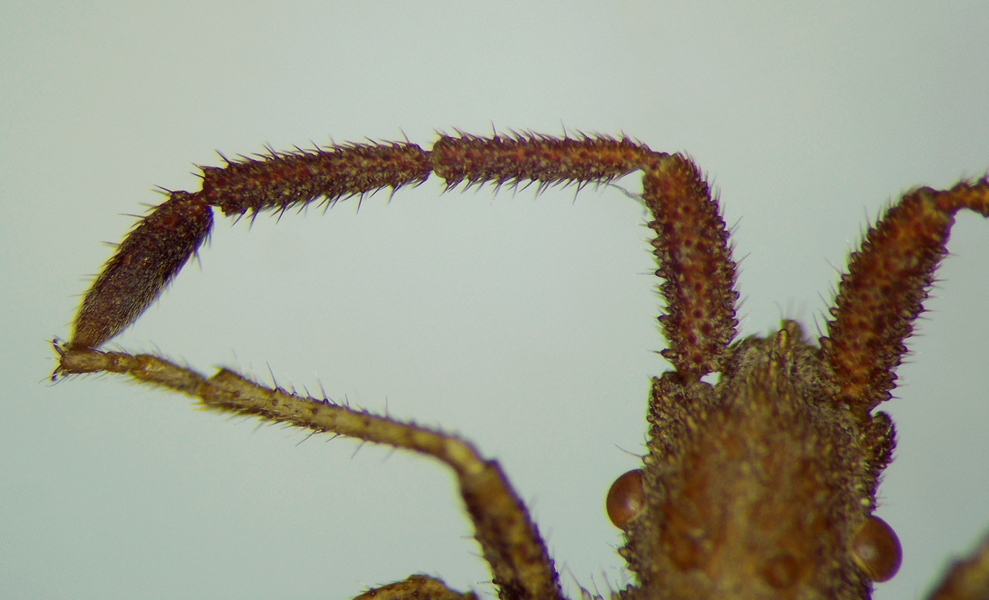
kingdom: Animalia
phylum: Arthropoda
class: Insecta
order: Hemiptera
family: Coreidae
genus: Coriomeris
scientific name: Coriomeris hirticornis
